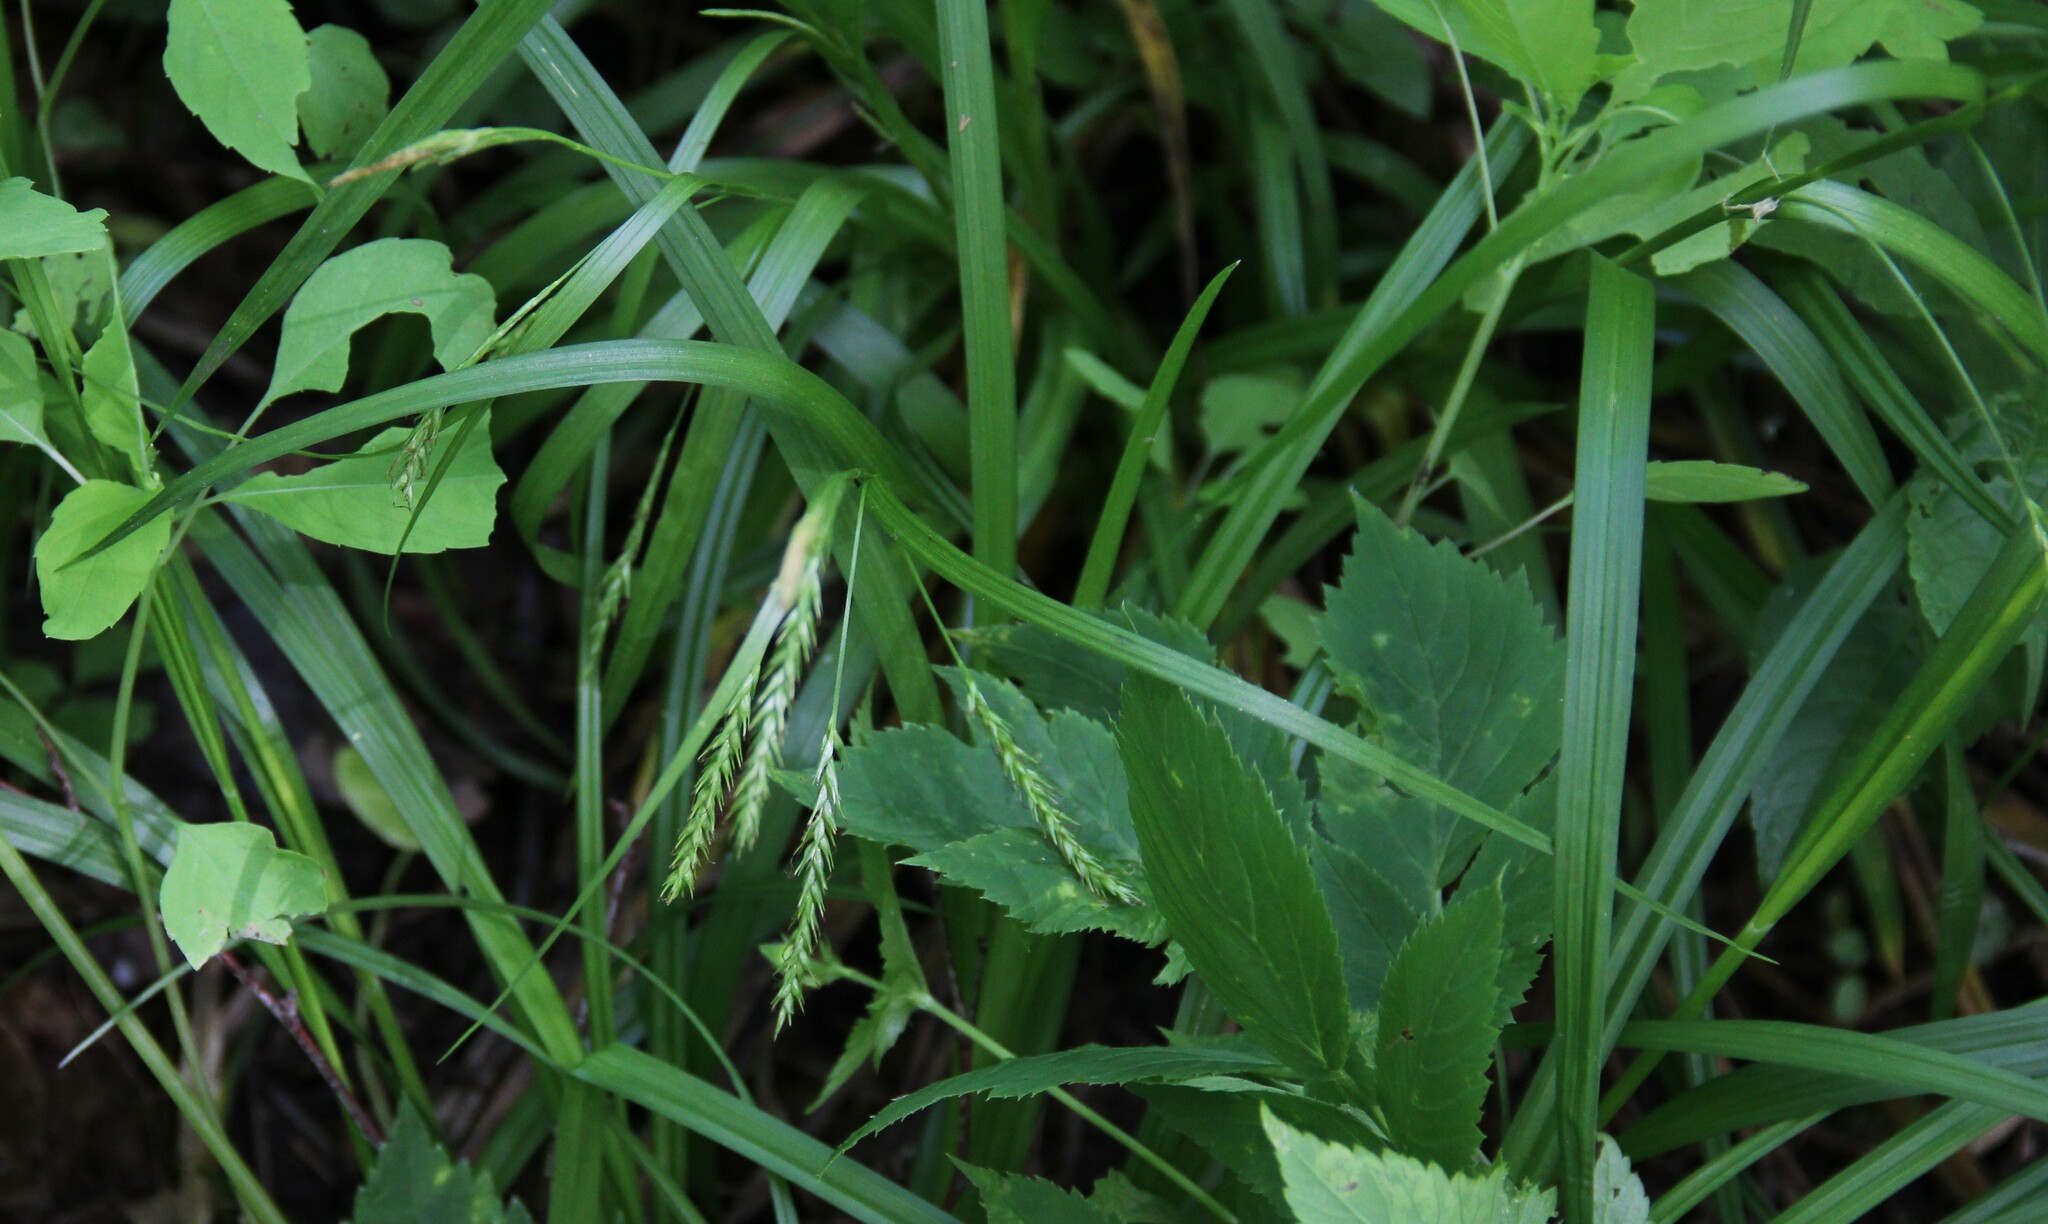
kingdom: Plantae
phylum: Tracheophyta
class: Liliopsida
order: Poales
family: Cyperaceae
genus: Carex
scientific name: Carex sylvatica
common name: Wood-sedge
